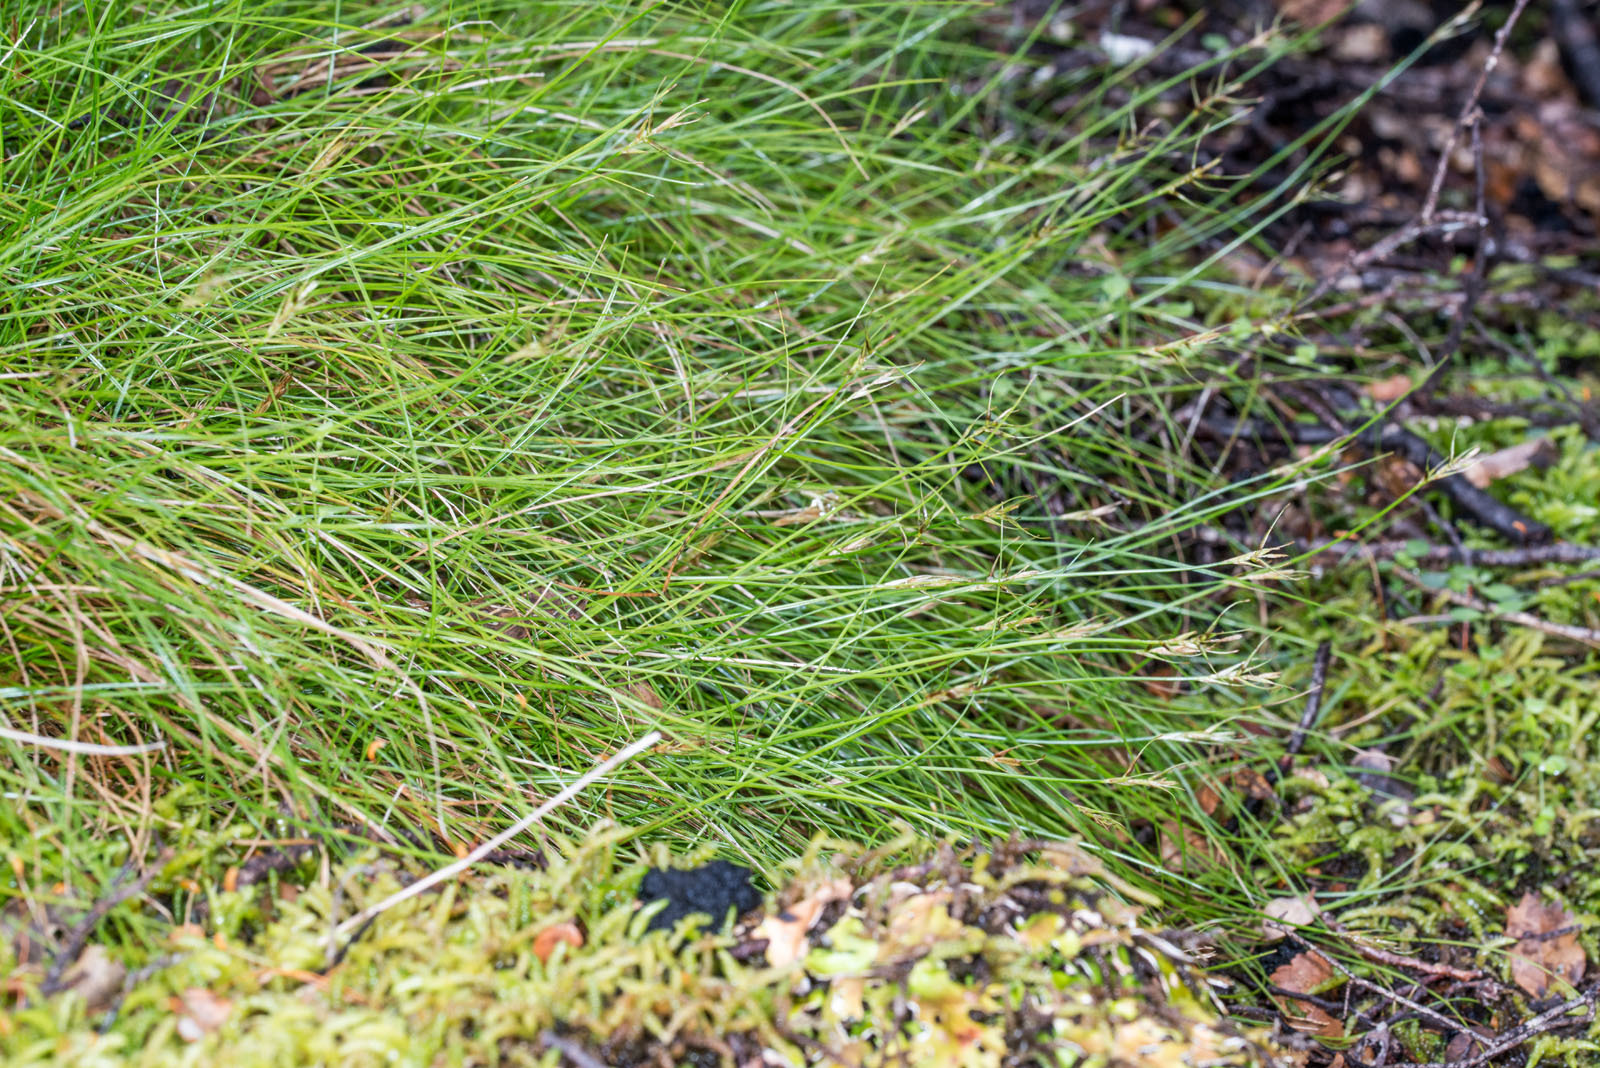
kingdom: Plantae
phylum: Tracheophyta
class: Liliopsida
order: Poales
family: Cyperaceae
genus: Carex
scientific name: Carex longifructus
